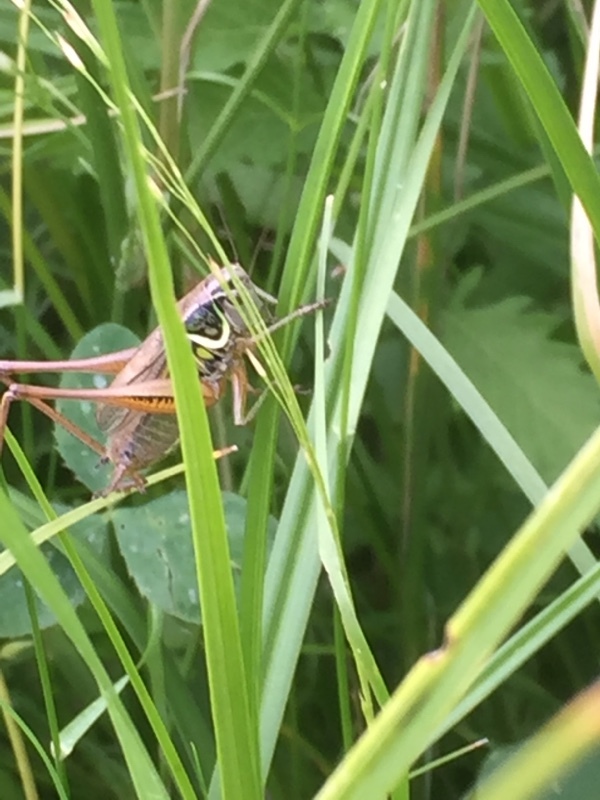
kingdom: Animalia
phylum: Arthropoda
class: Insecta
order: Orthoptera
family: Tettigoniidae
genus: Roeseliana
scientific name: Roeseliana roeselii
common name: Roesel's bush cricket
